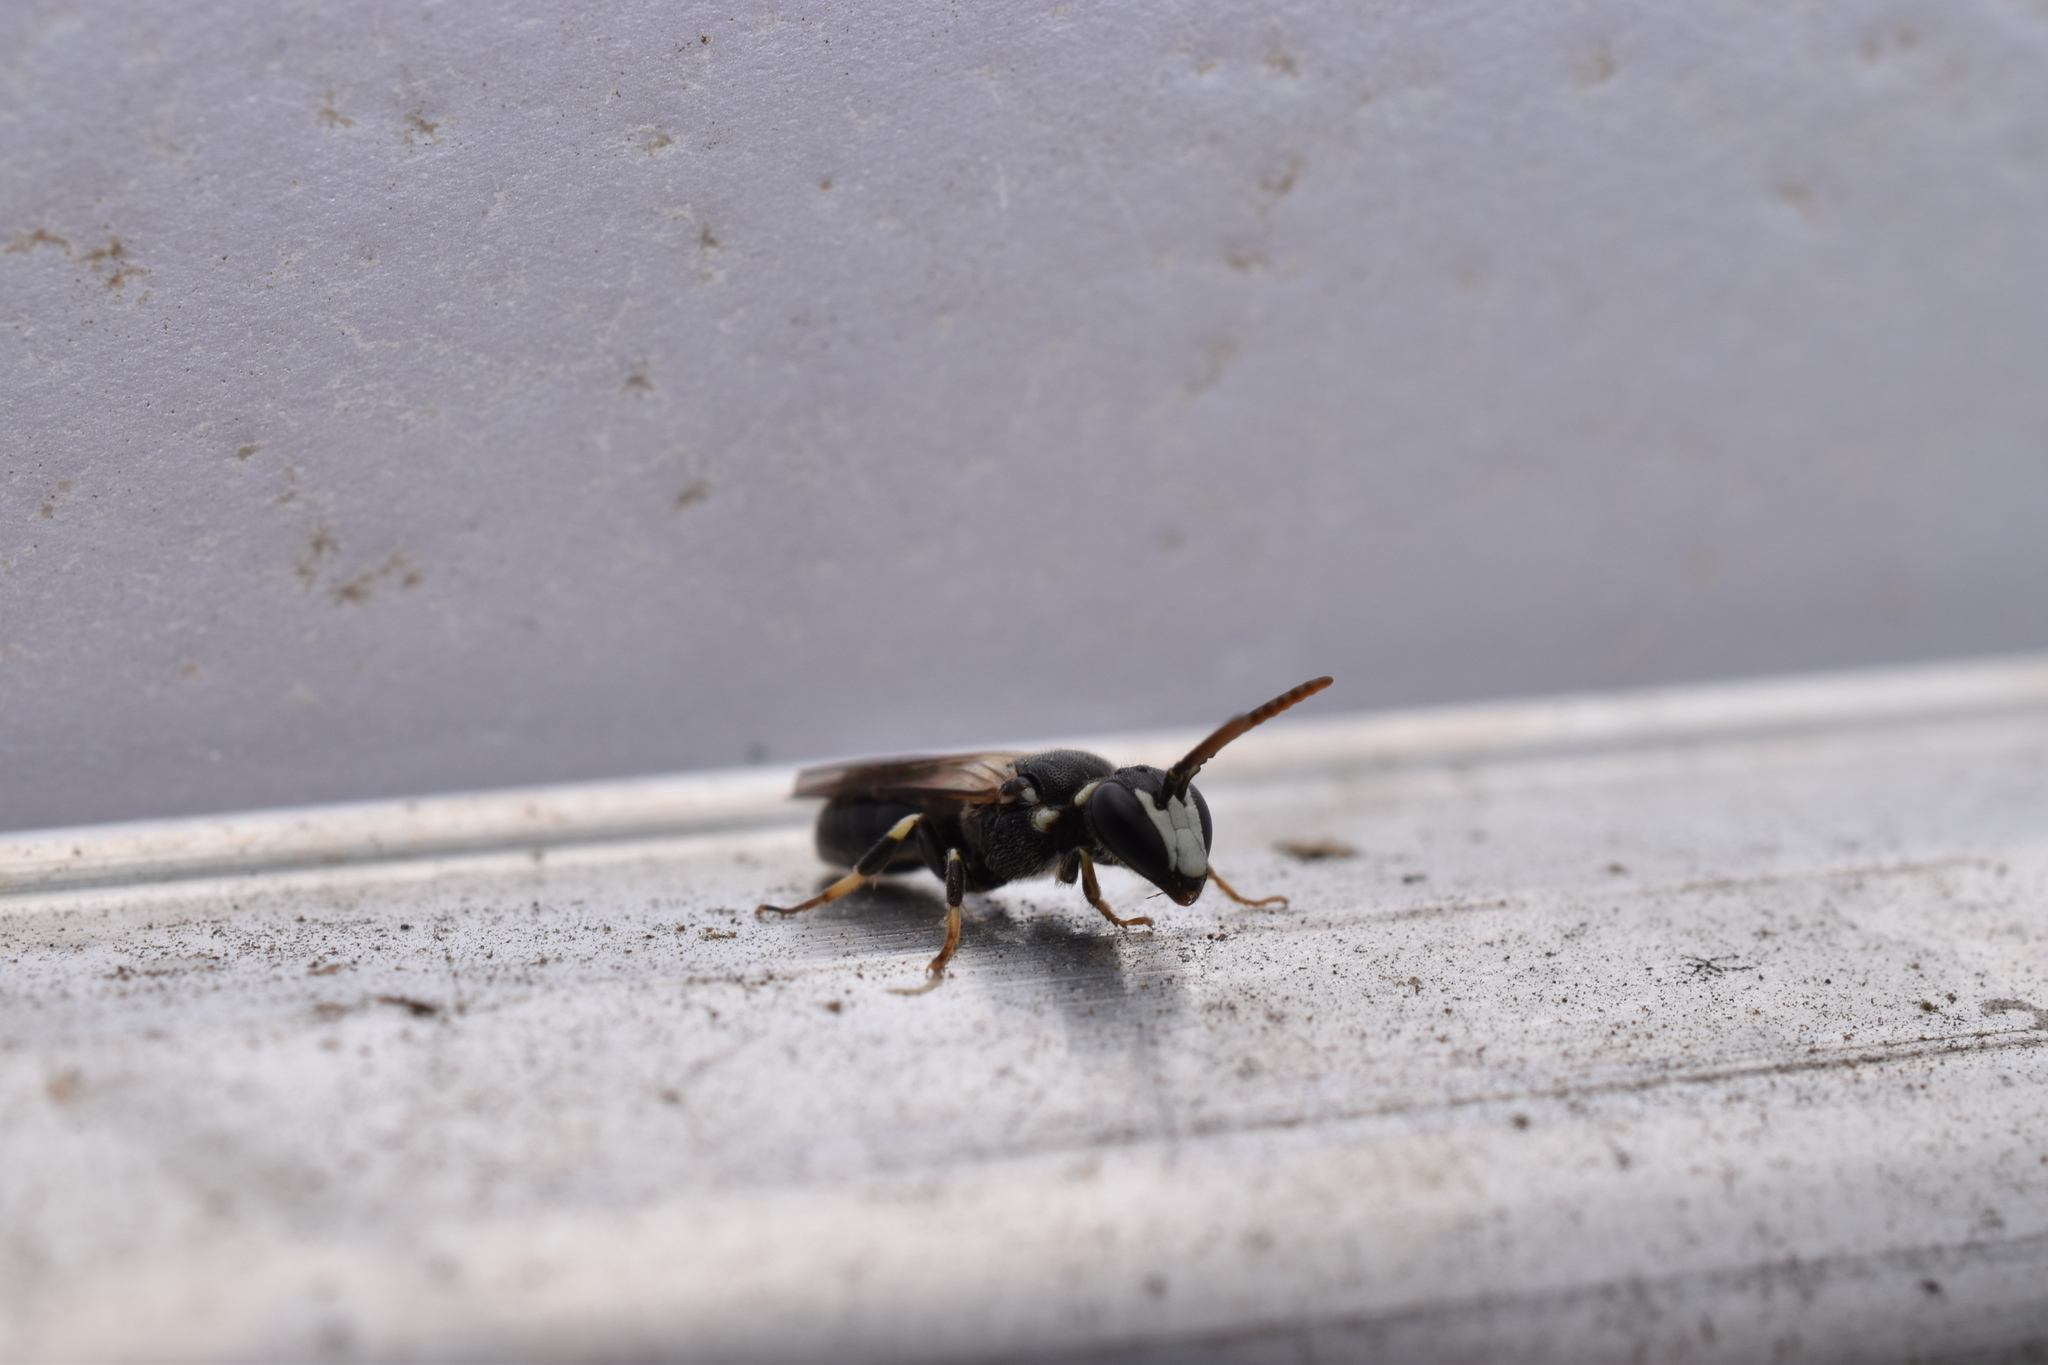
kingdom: Animalia
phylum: Arthropoda
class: Insecta
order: Hymenoptera
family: Colletidae
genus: Hylaeus
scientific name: Hylaeus leptocephalus
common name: Slender-faced masked bee
